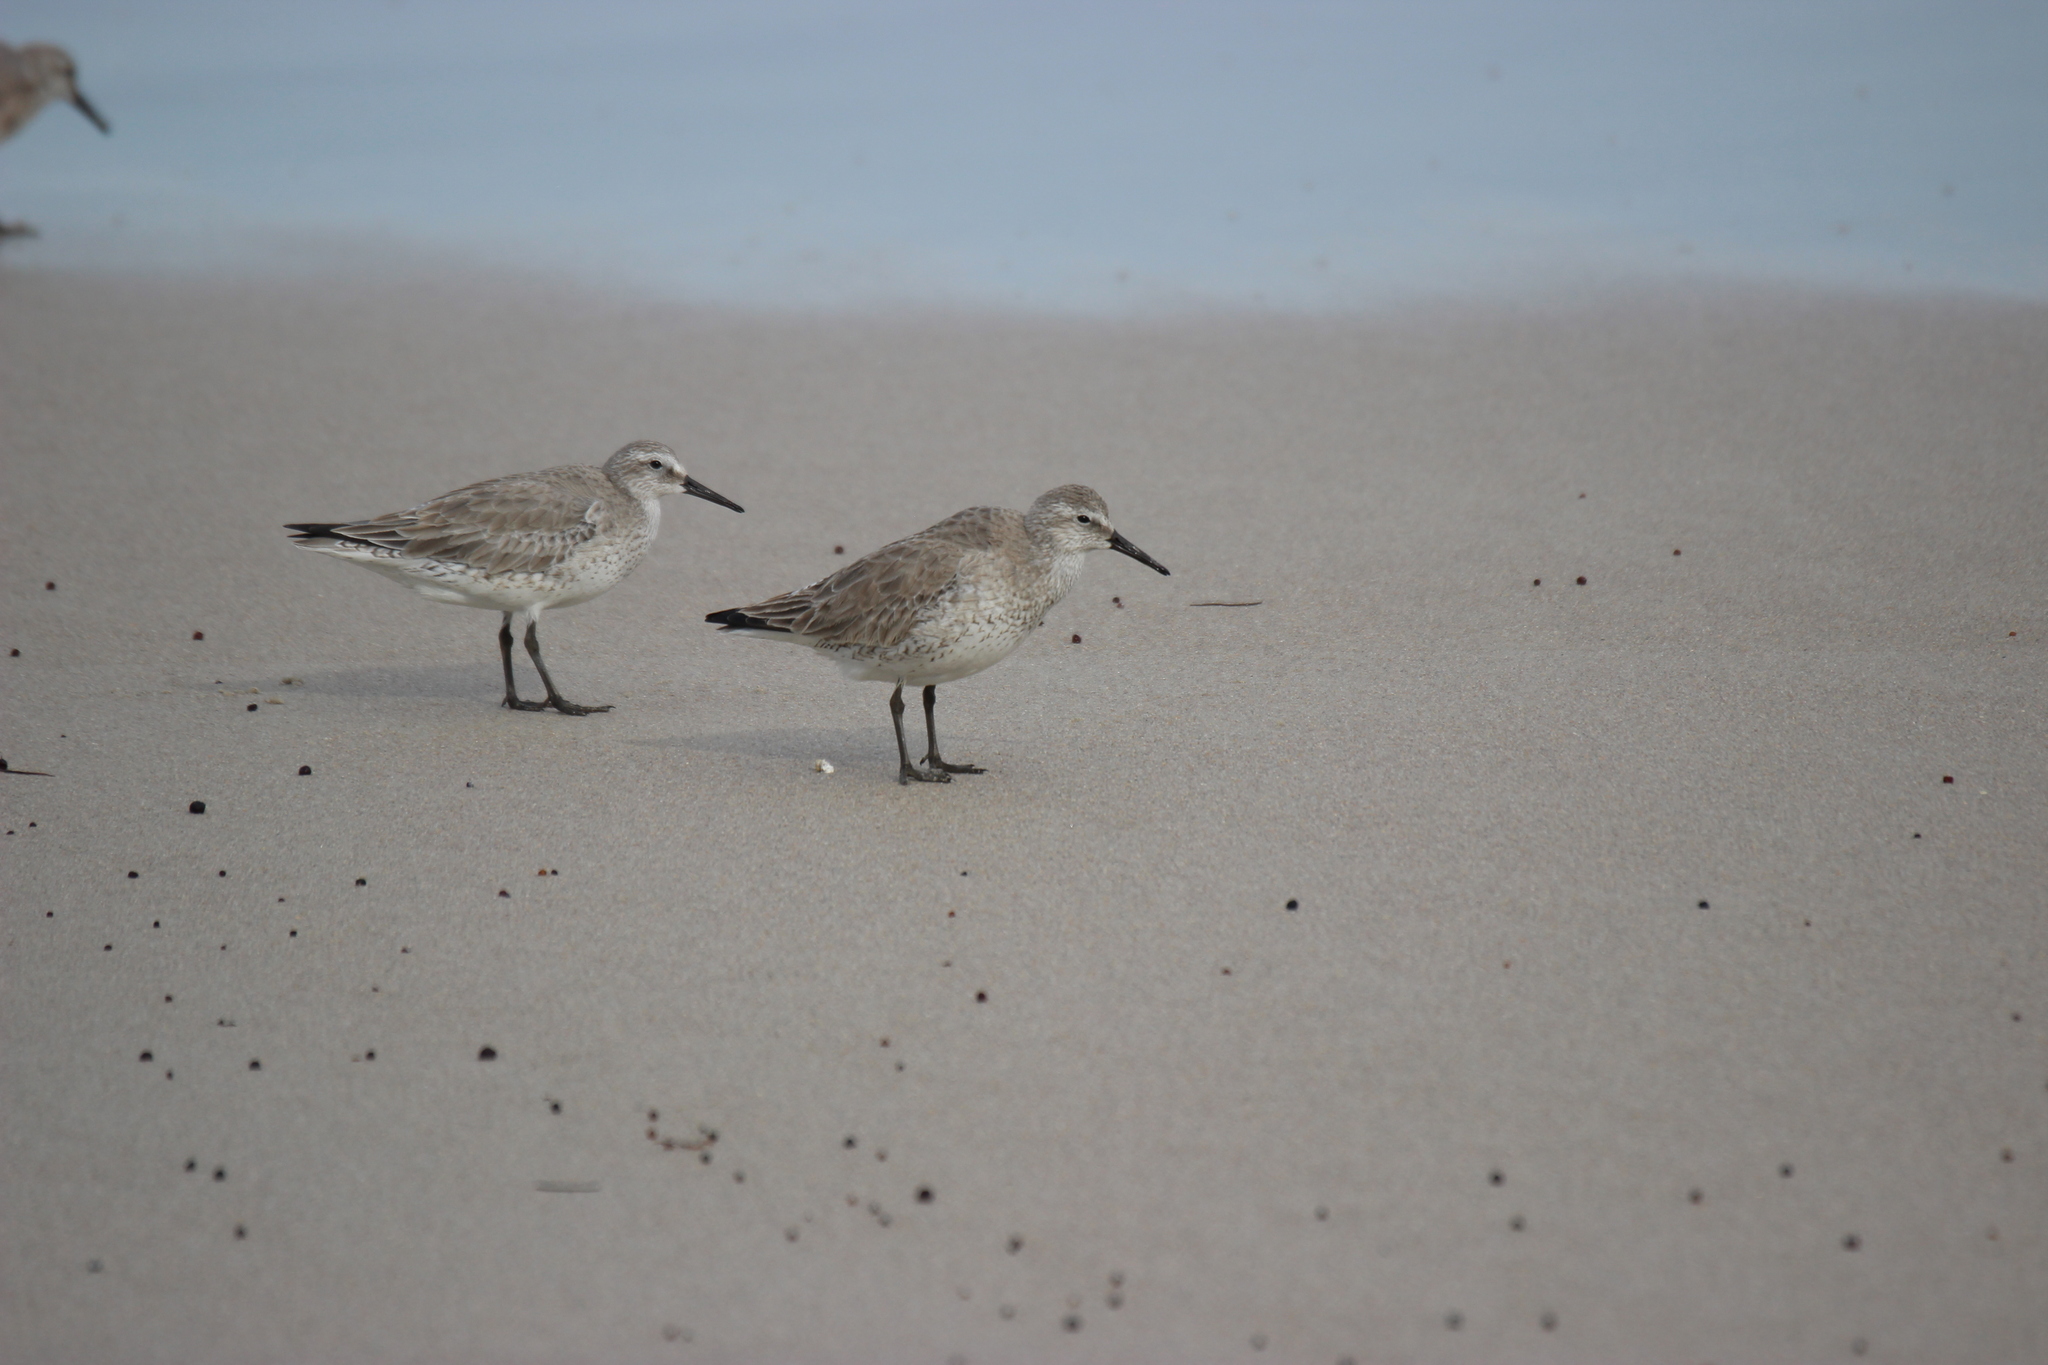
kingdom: Animalia
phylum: Chordata
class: Aves
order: Charadriiformes
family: Scolopacidae
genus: Calidris
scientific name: Calidris canutus
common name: Red knot
